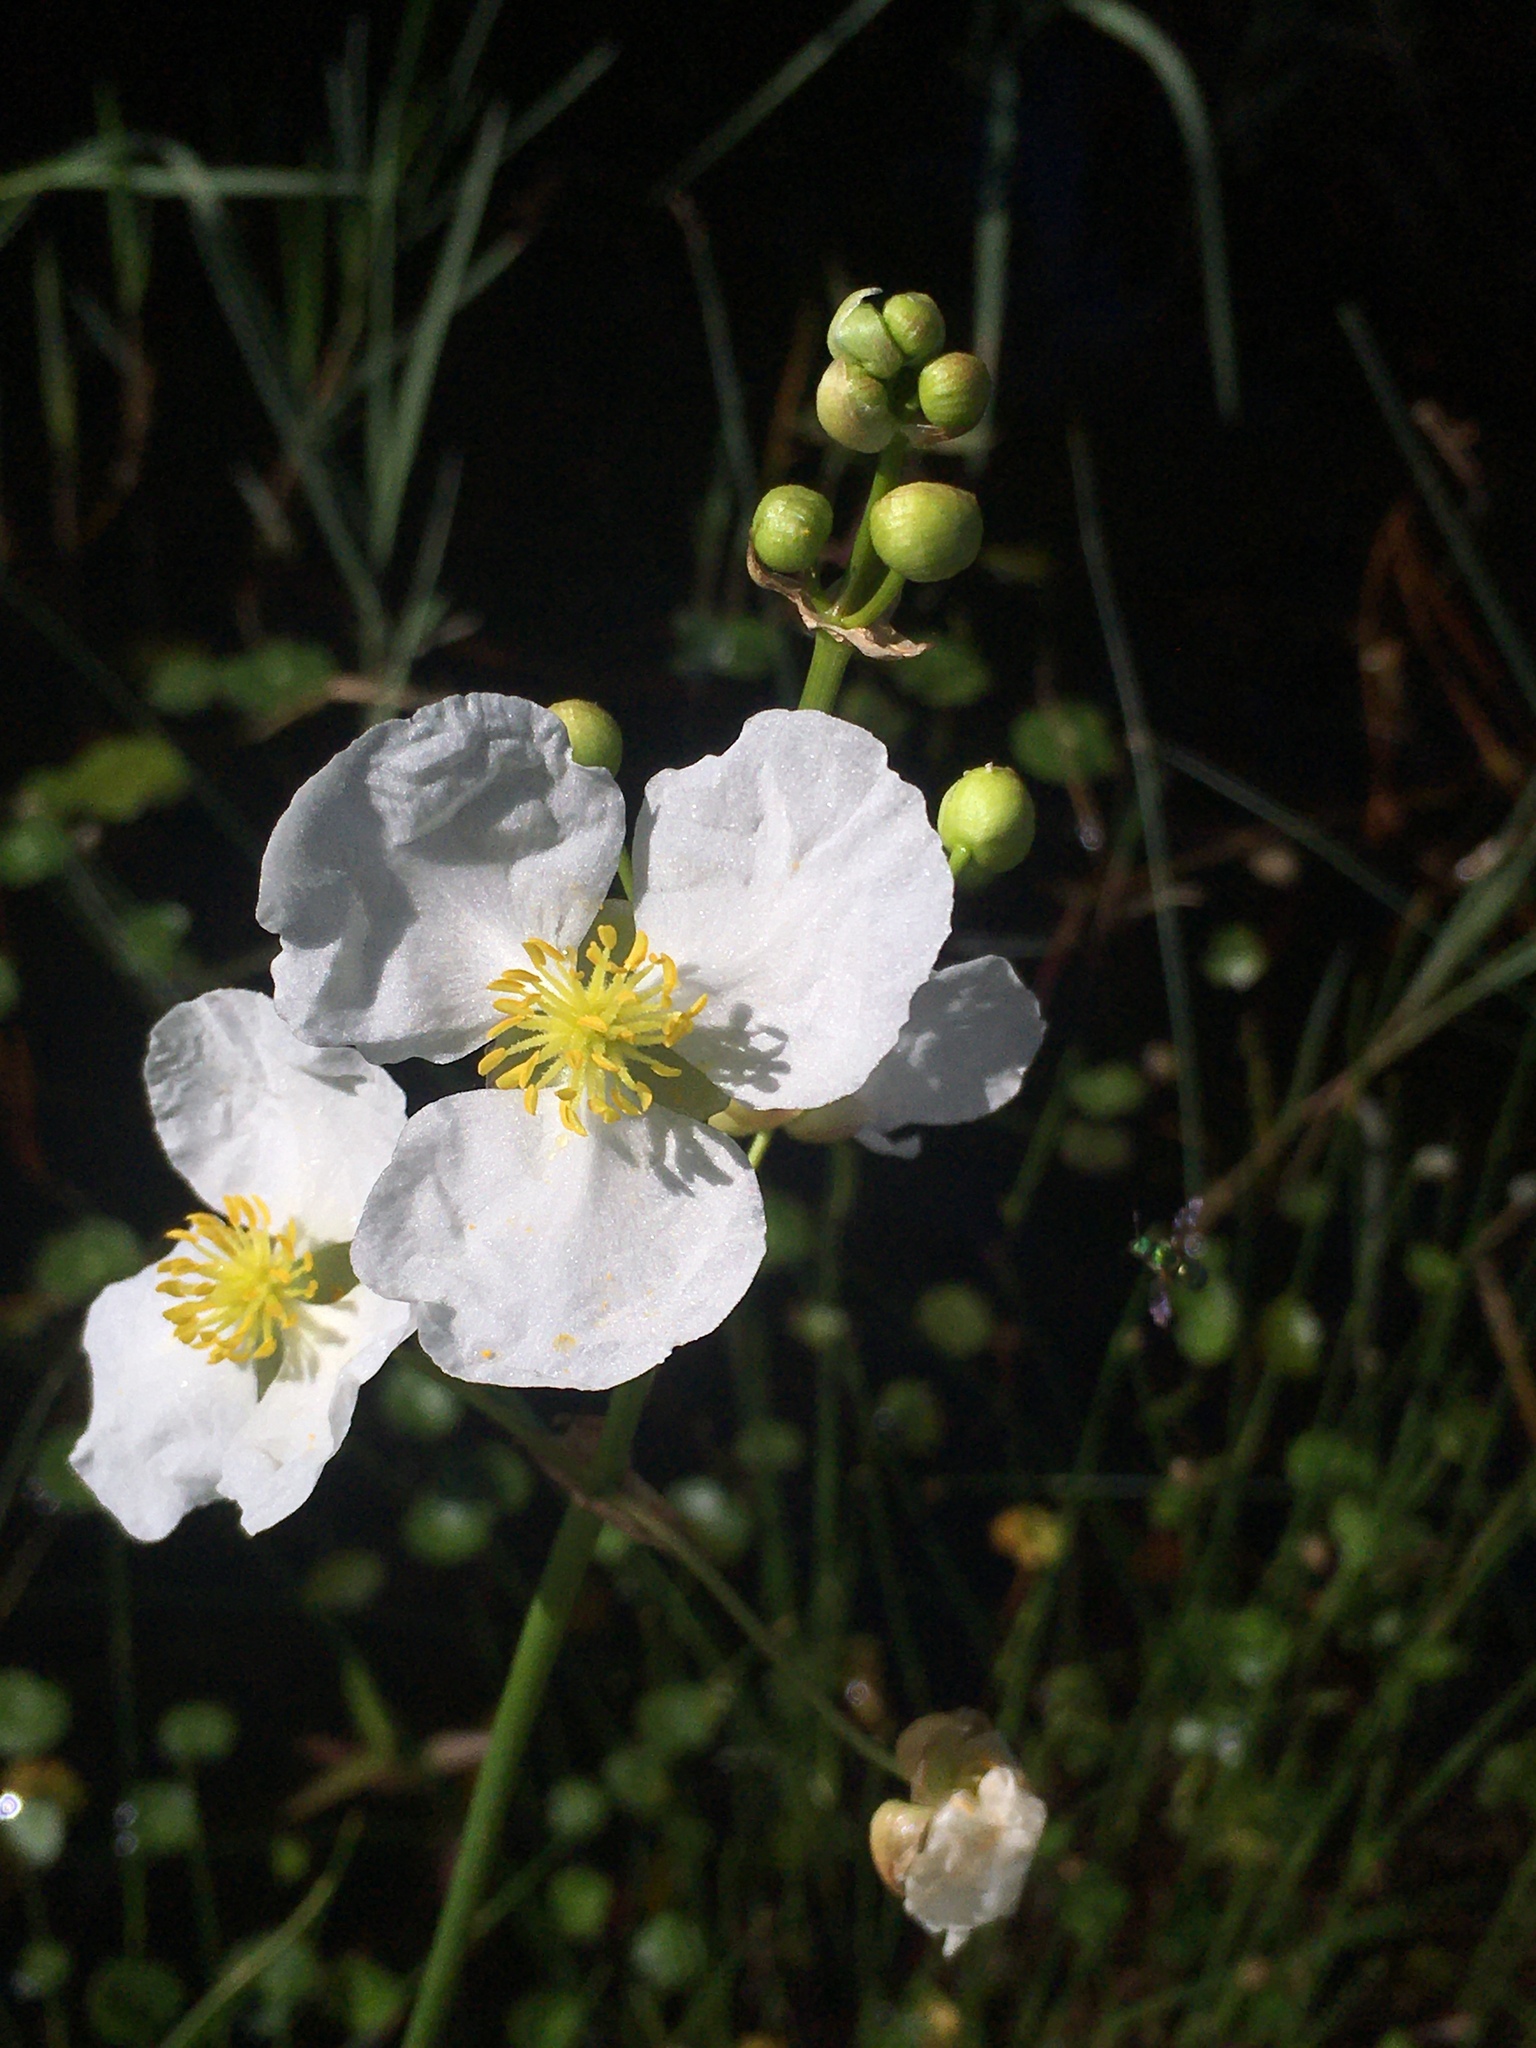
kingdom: Plantae
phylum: Tracheophyta
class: Liliopsida
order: Alismatales
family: Alismataceae
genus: Sagittaria
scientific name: Sagittaria lancifolia
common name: Lance-leaf arrowhead
